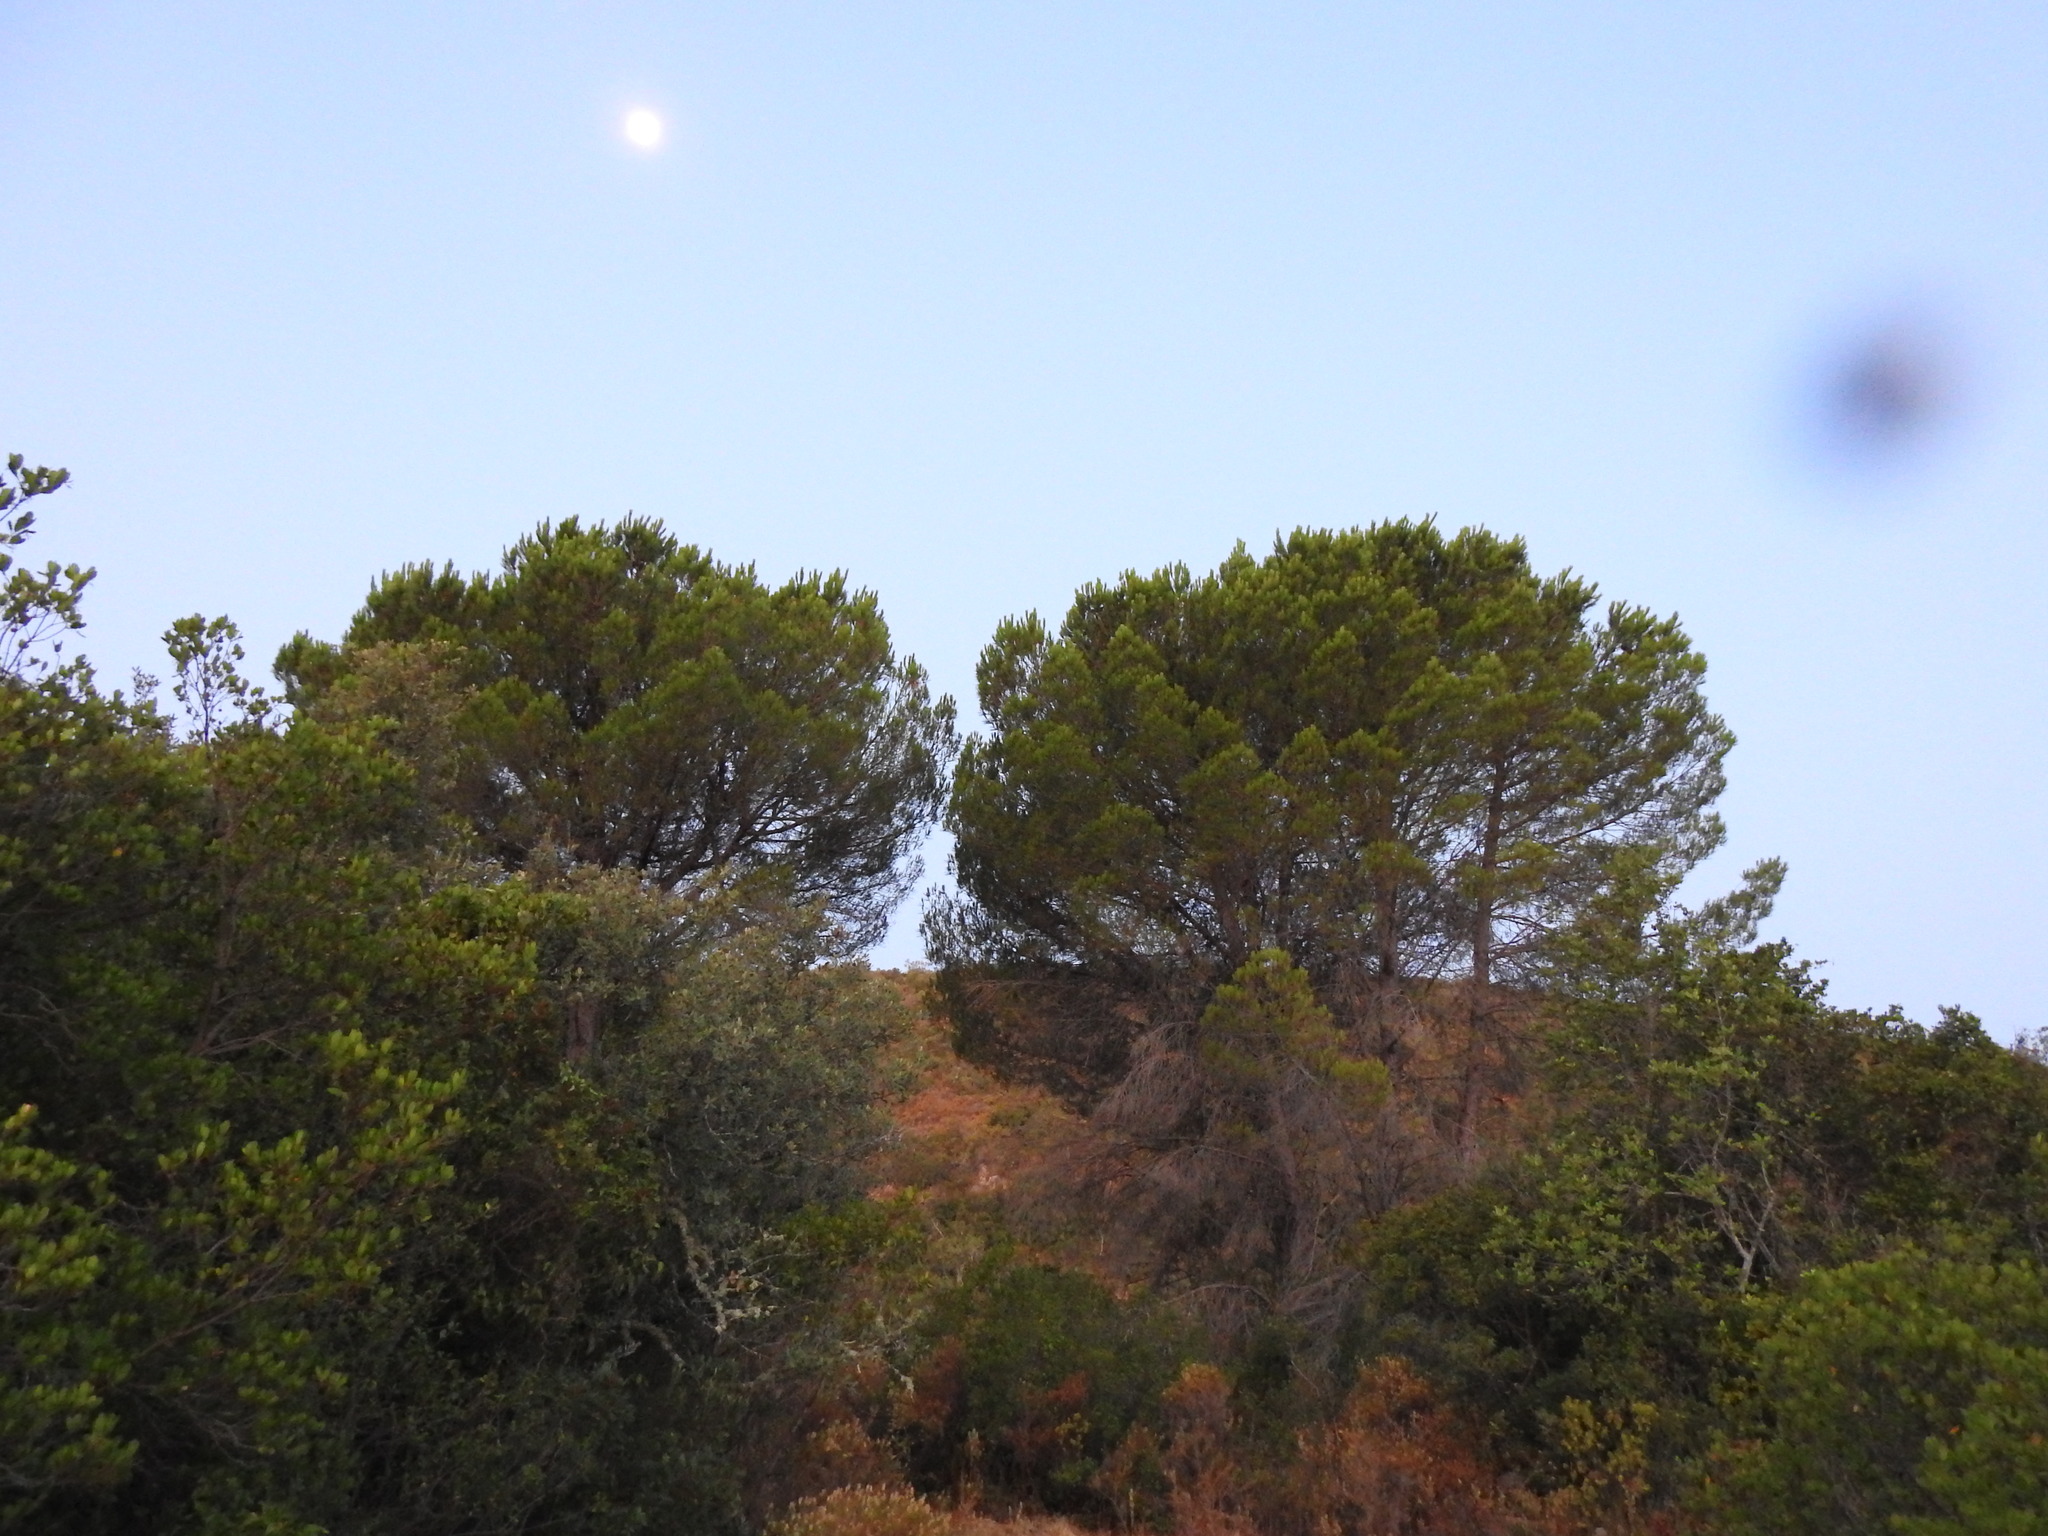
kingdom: Plantae
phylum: Tracheophyta
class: Pinopsida
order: Pinales
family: Pinaceae
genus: Pinus
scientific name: Pinus pinea
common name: Italian stone pine
